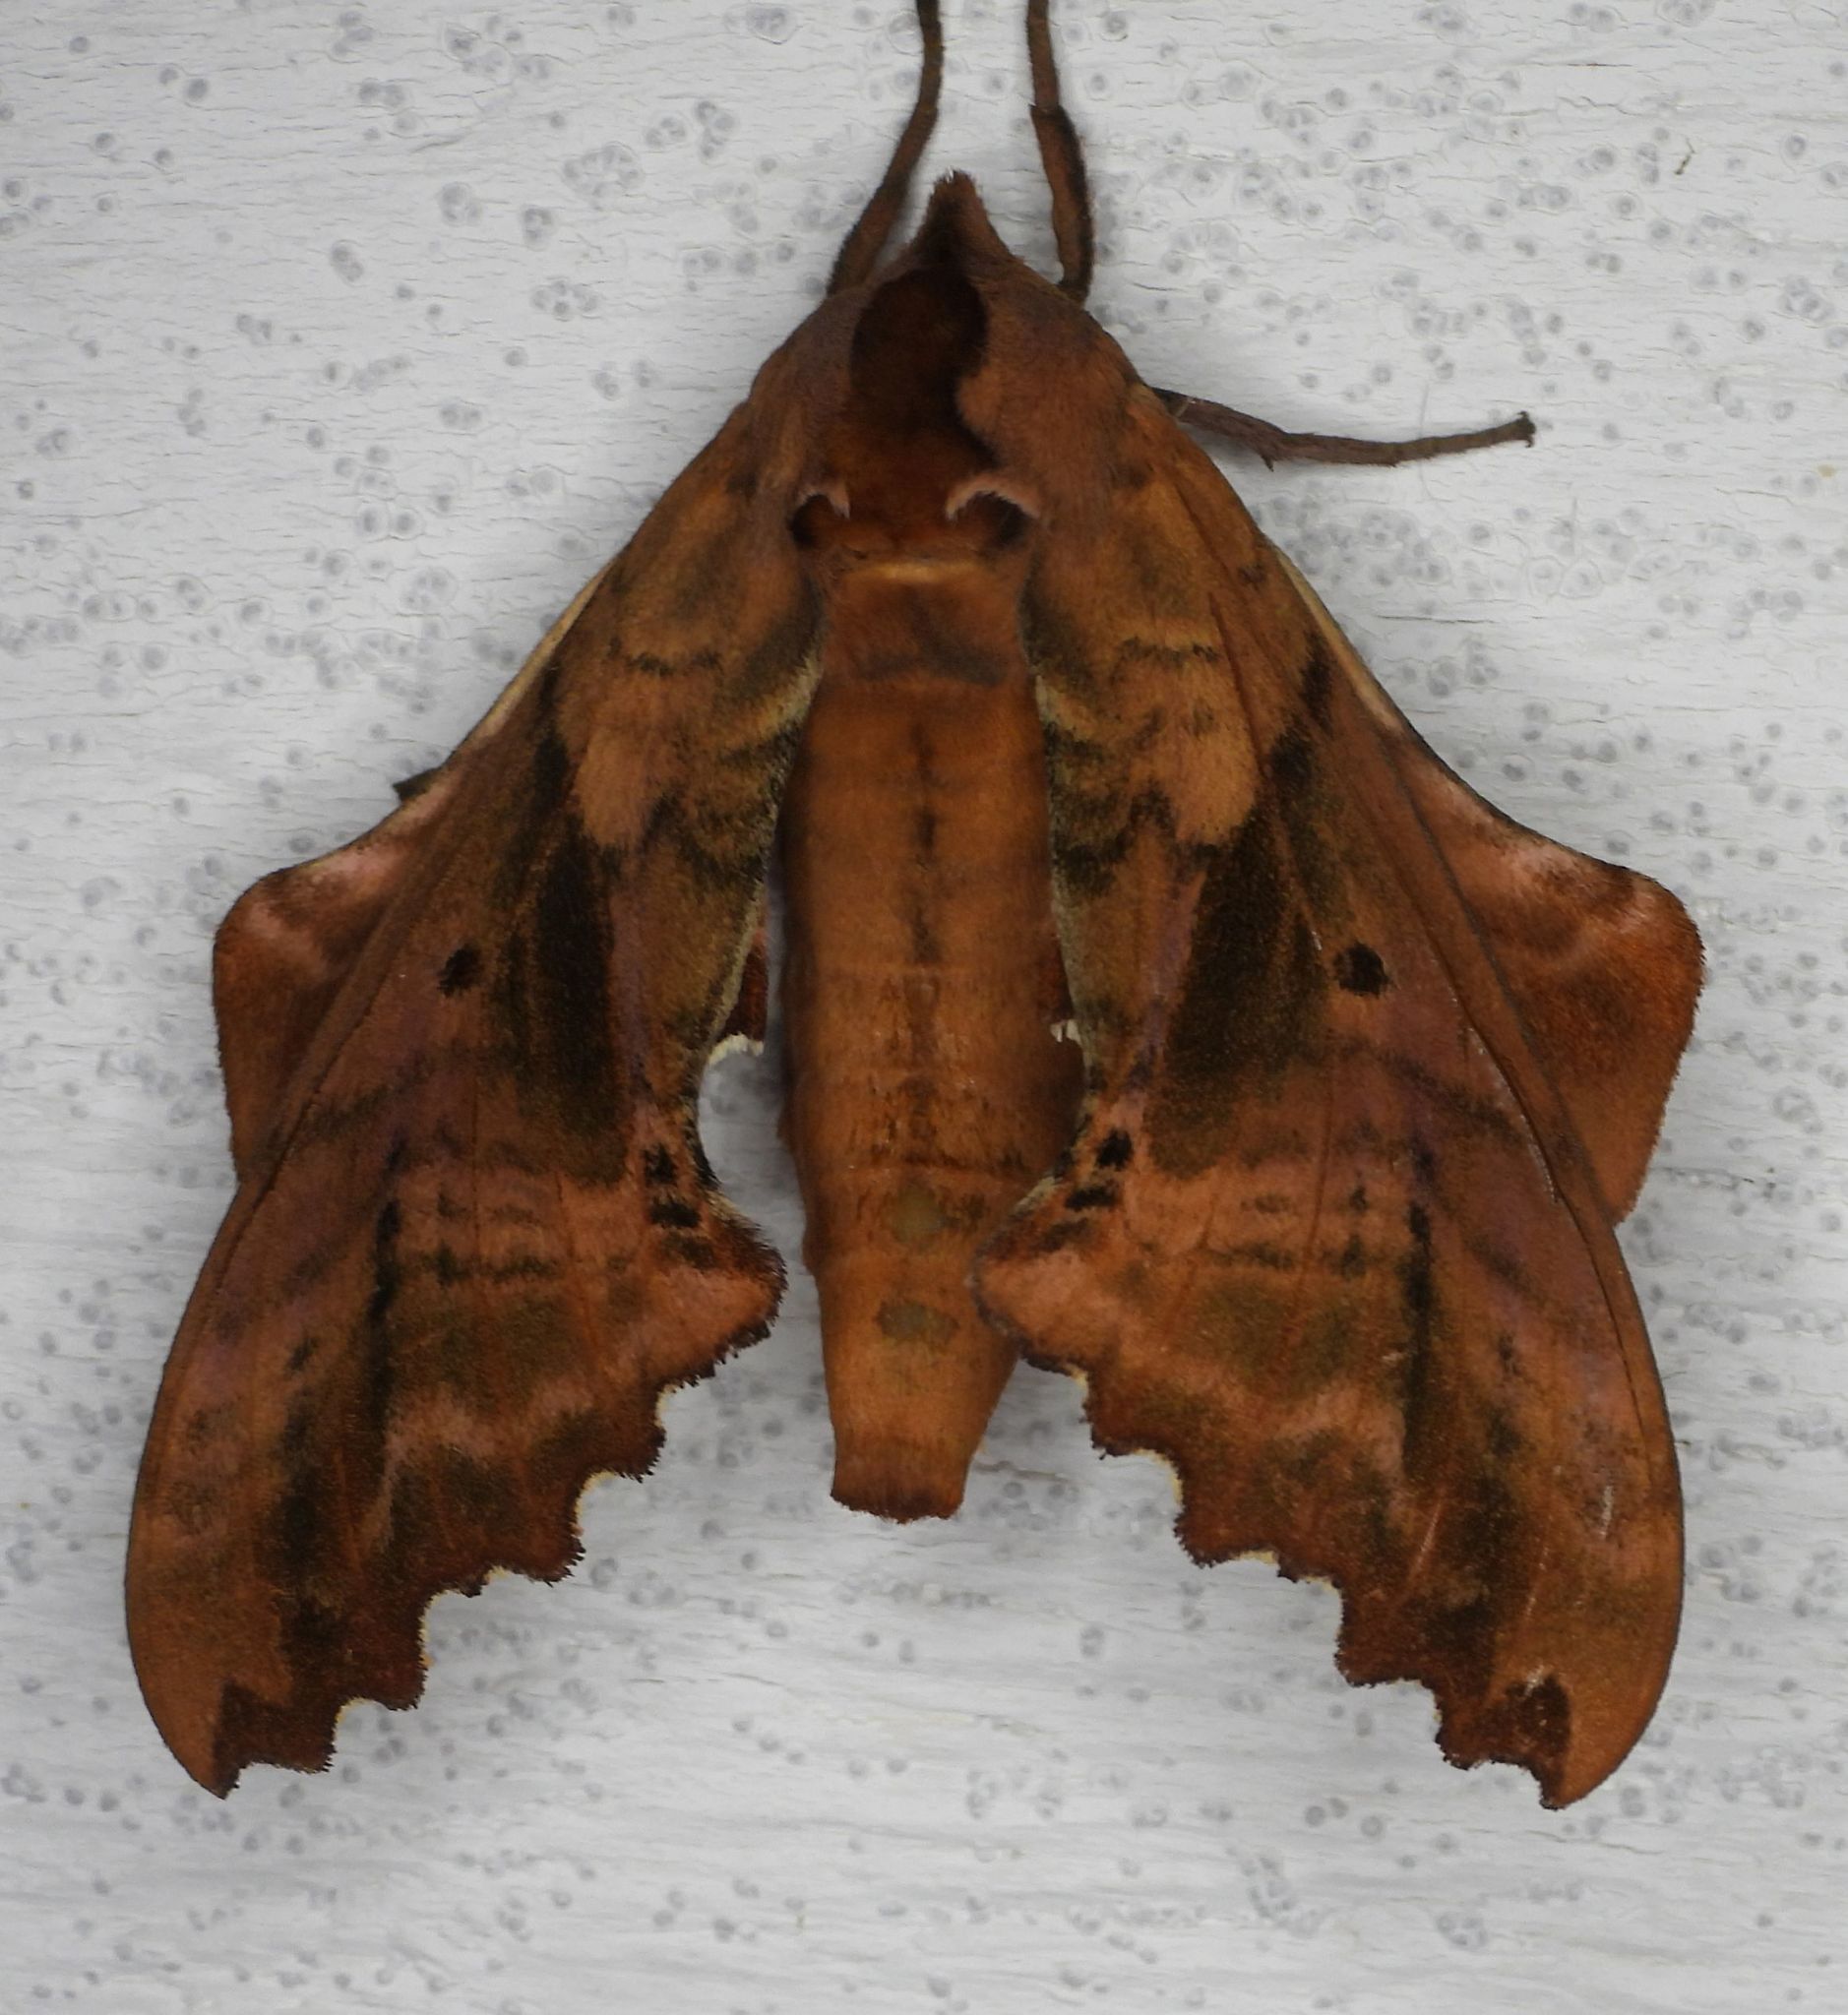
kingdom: Animalia
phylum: Arthropoda
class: Insecta
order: Lepidoptera
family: Sphingidae
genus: Paonias
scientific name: Paonias excaecata
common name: Blind-eyed sphinx
